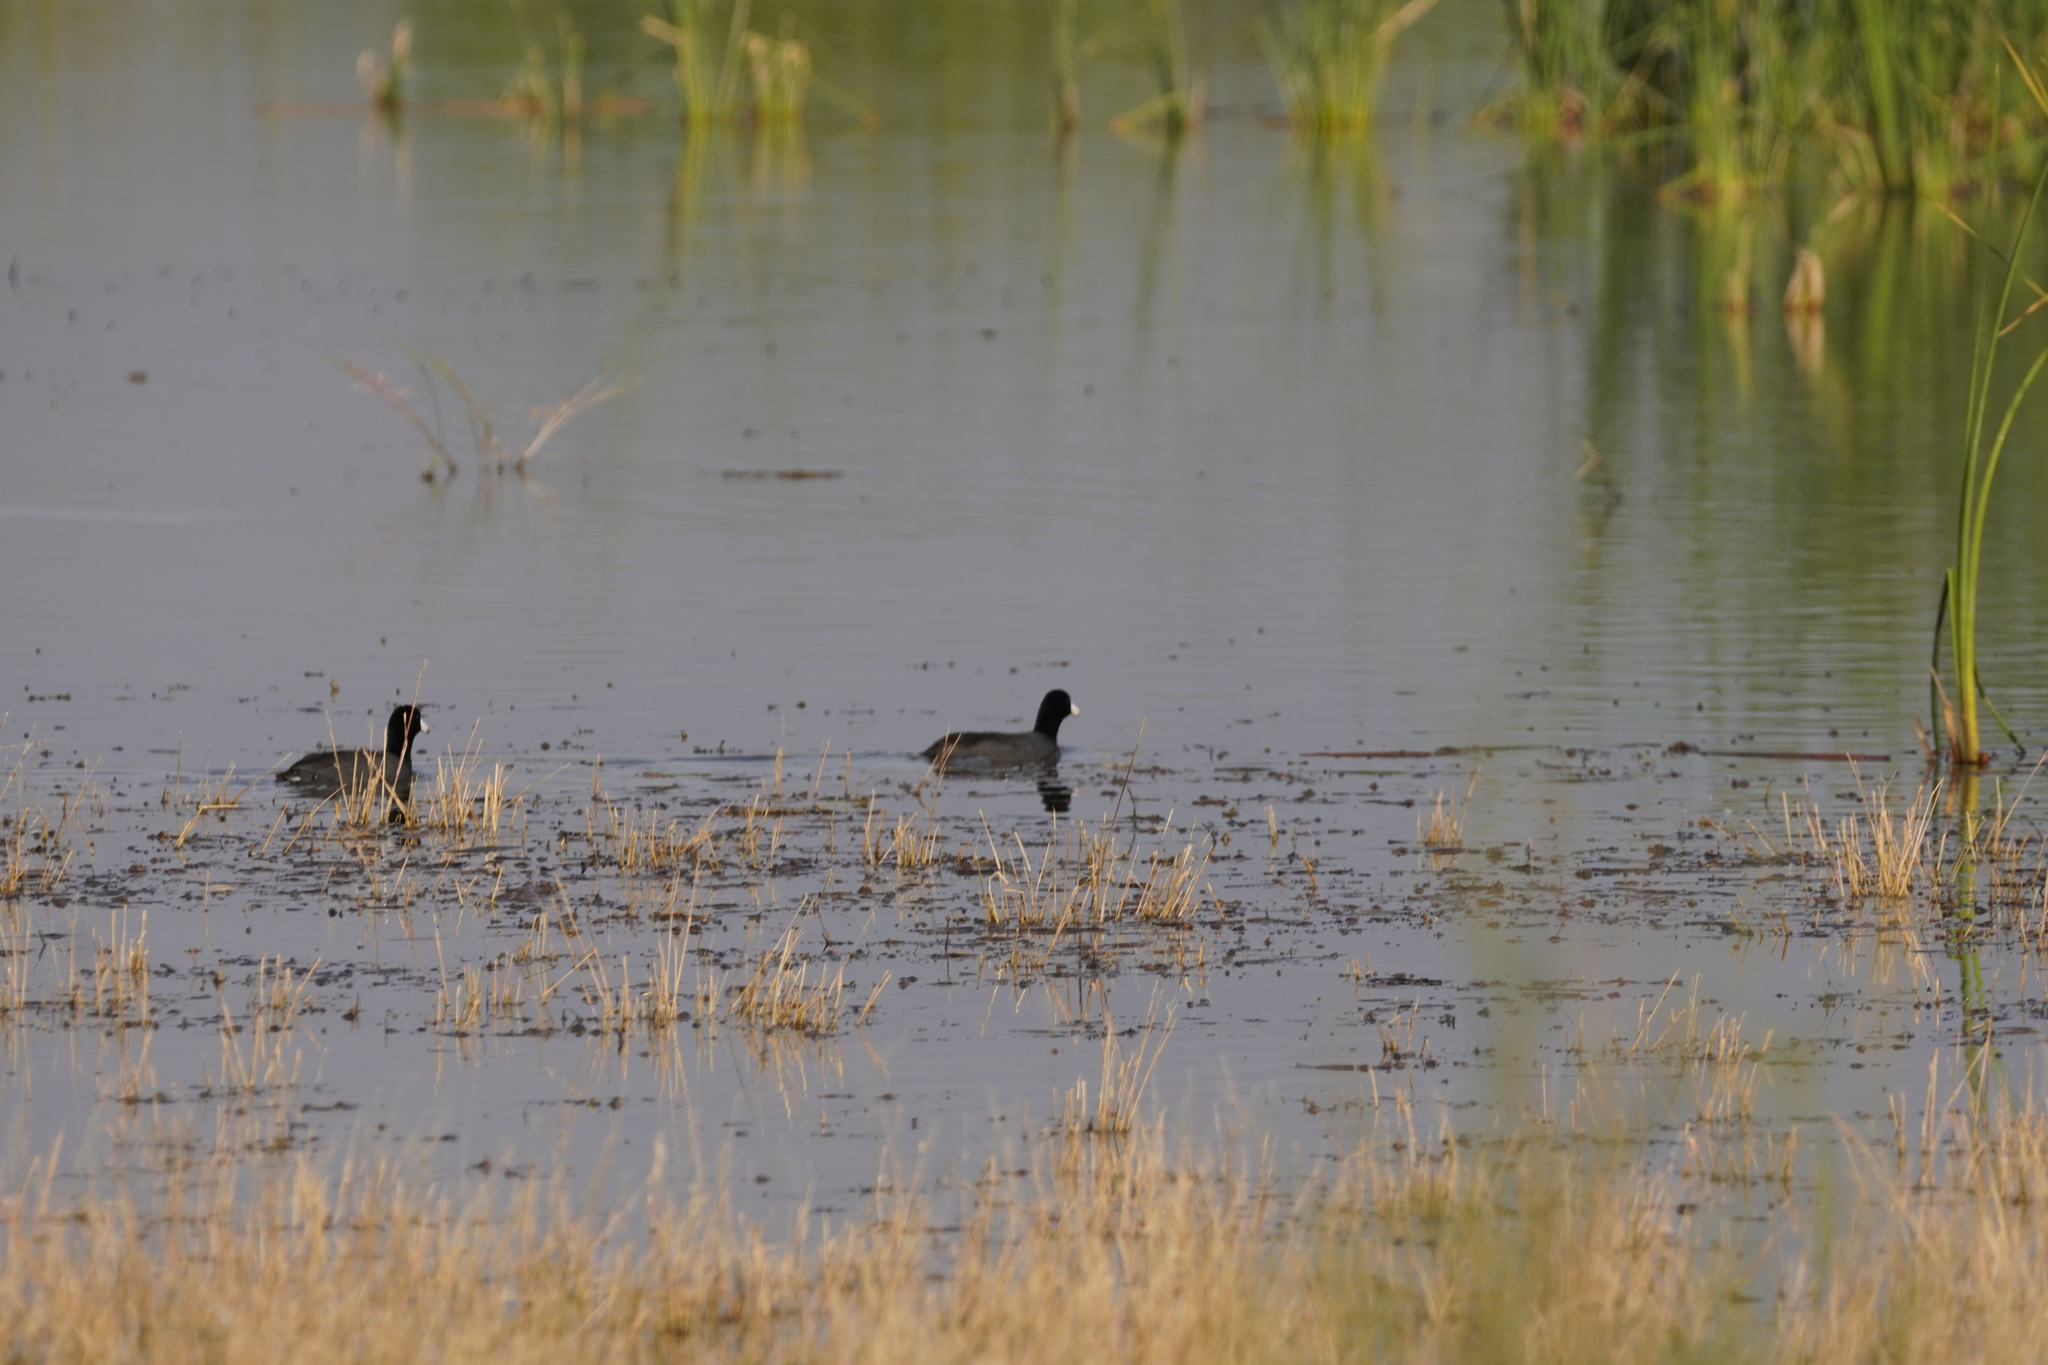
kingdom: Animalia
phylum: Chordata
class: Aves
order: Gruiformes
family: Rallidae
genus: Fulica
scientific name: Fulica americana
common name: American coot
